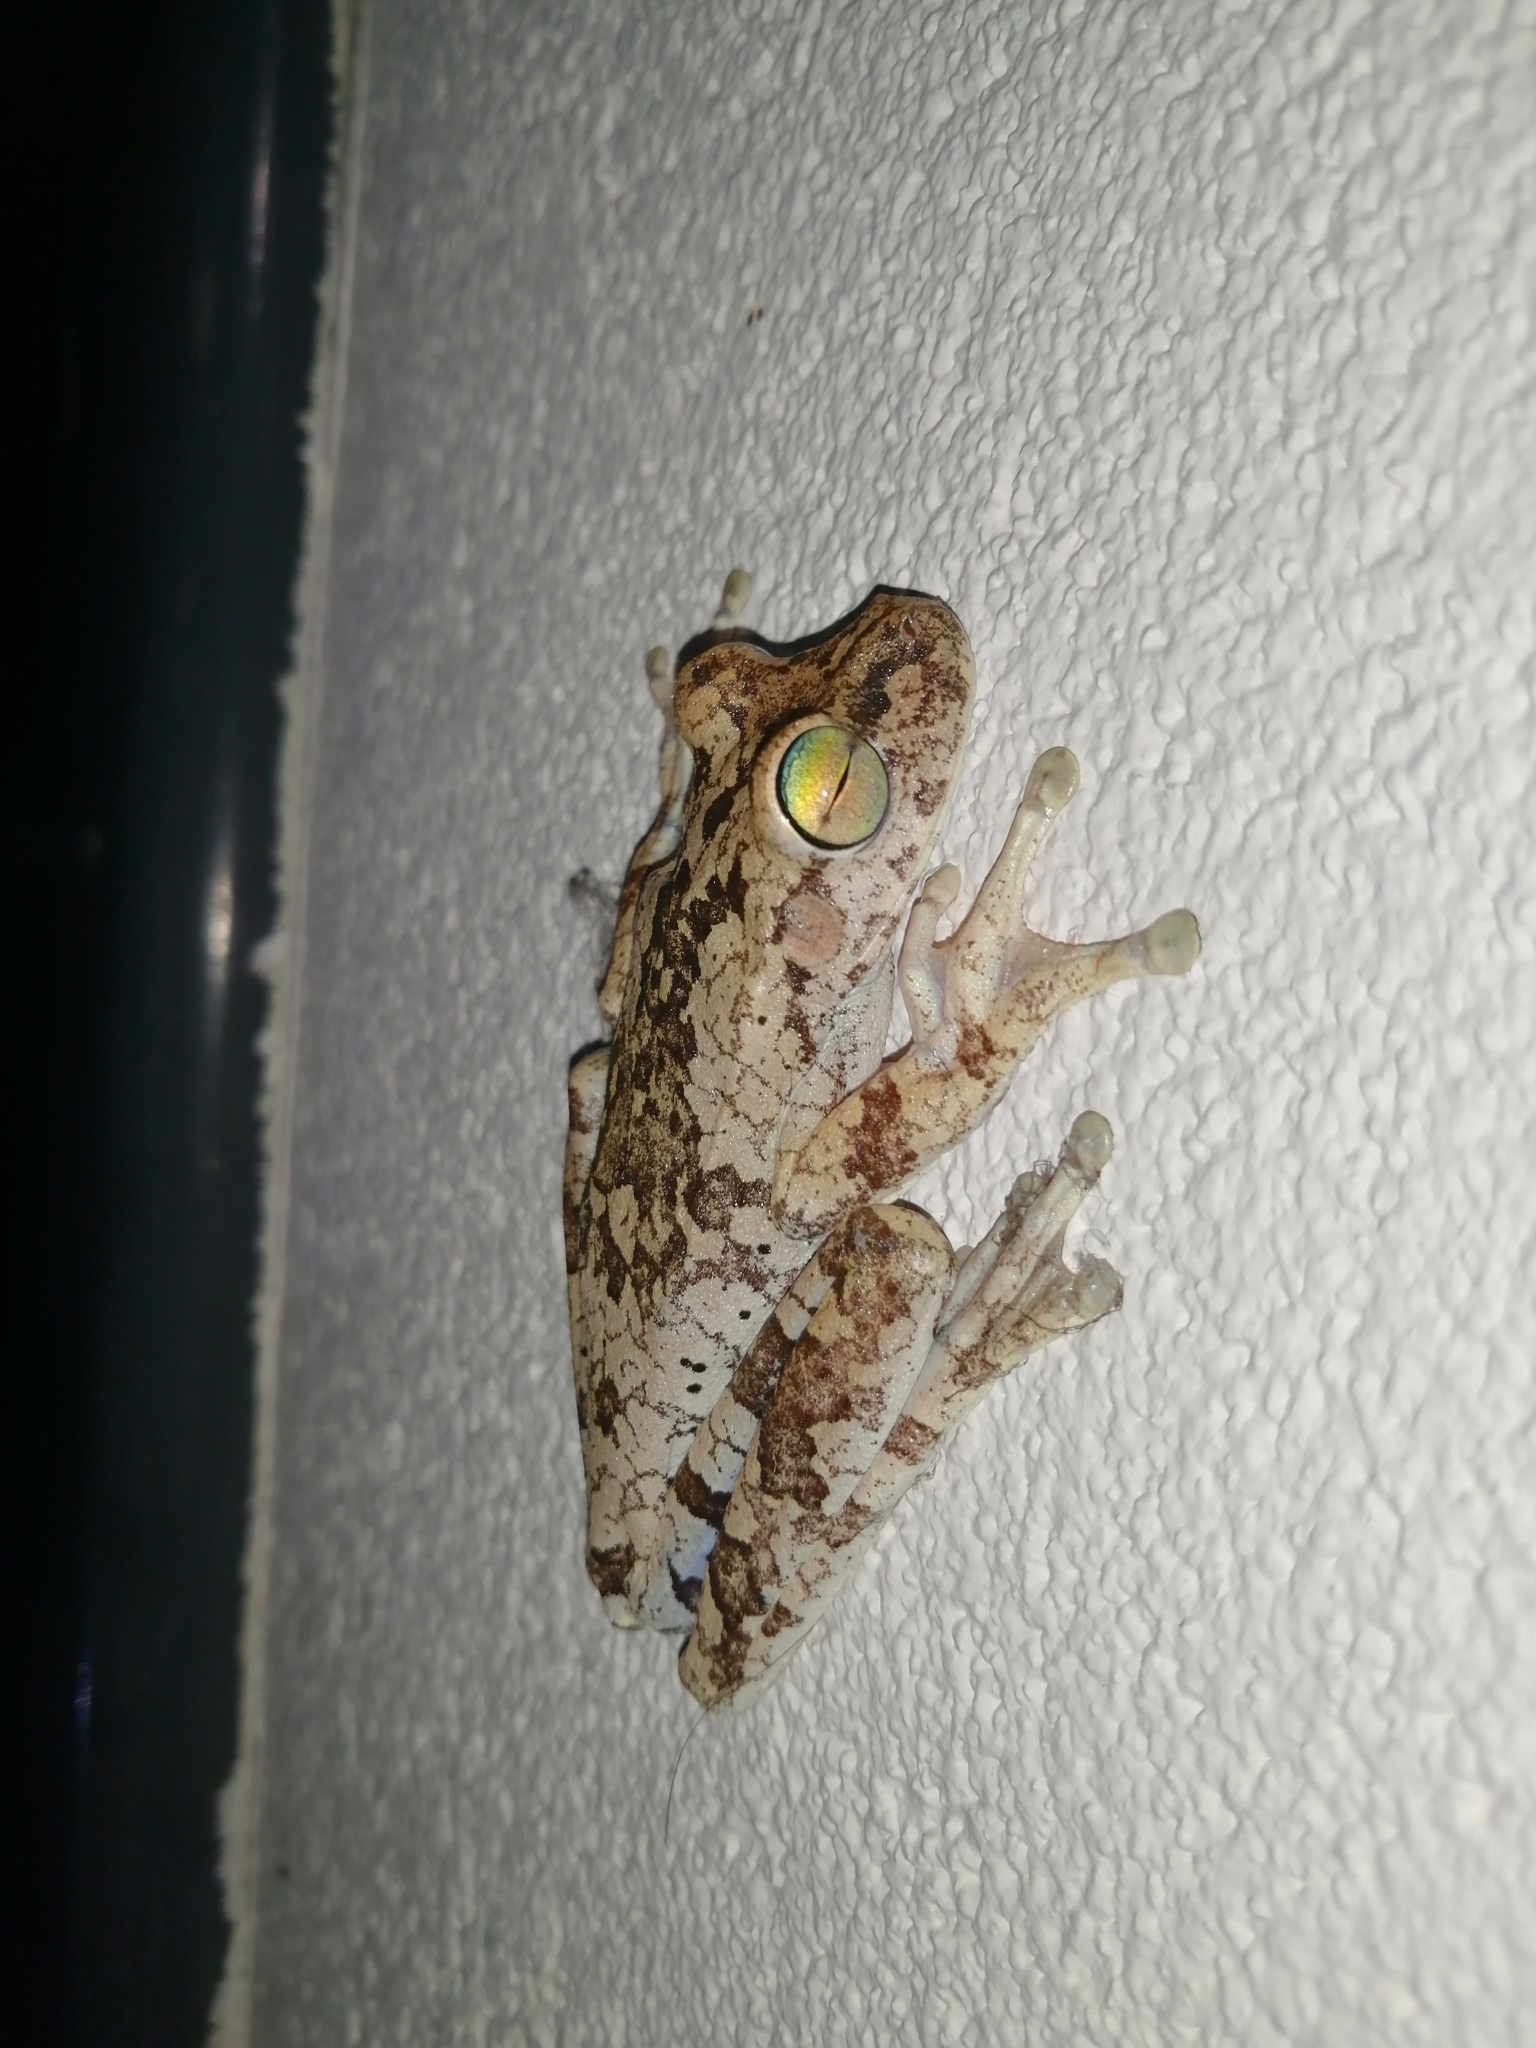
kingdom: Animalia
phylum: Chordata
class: Amphibia
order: Anura
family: Hylidae
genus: Boana
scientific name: Boana pugnax
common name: Chirique-flusse treefrog
